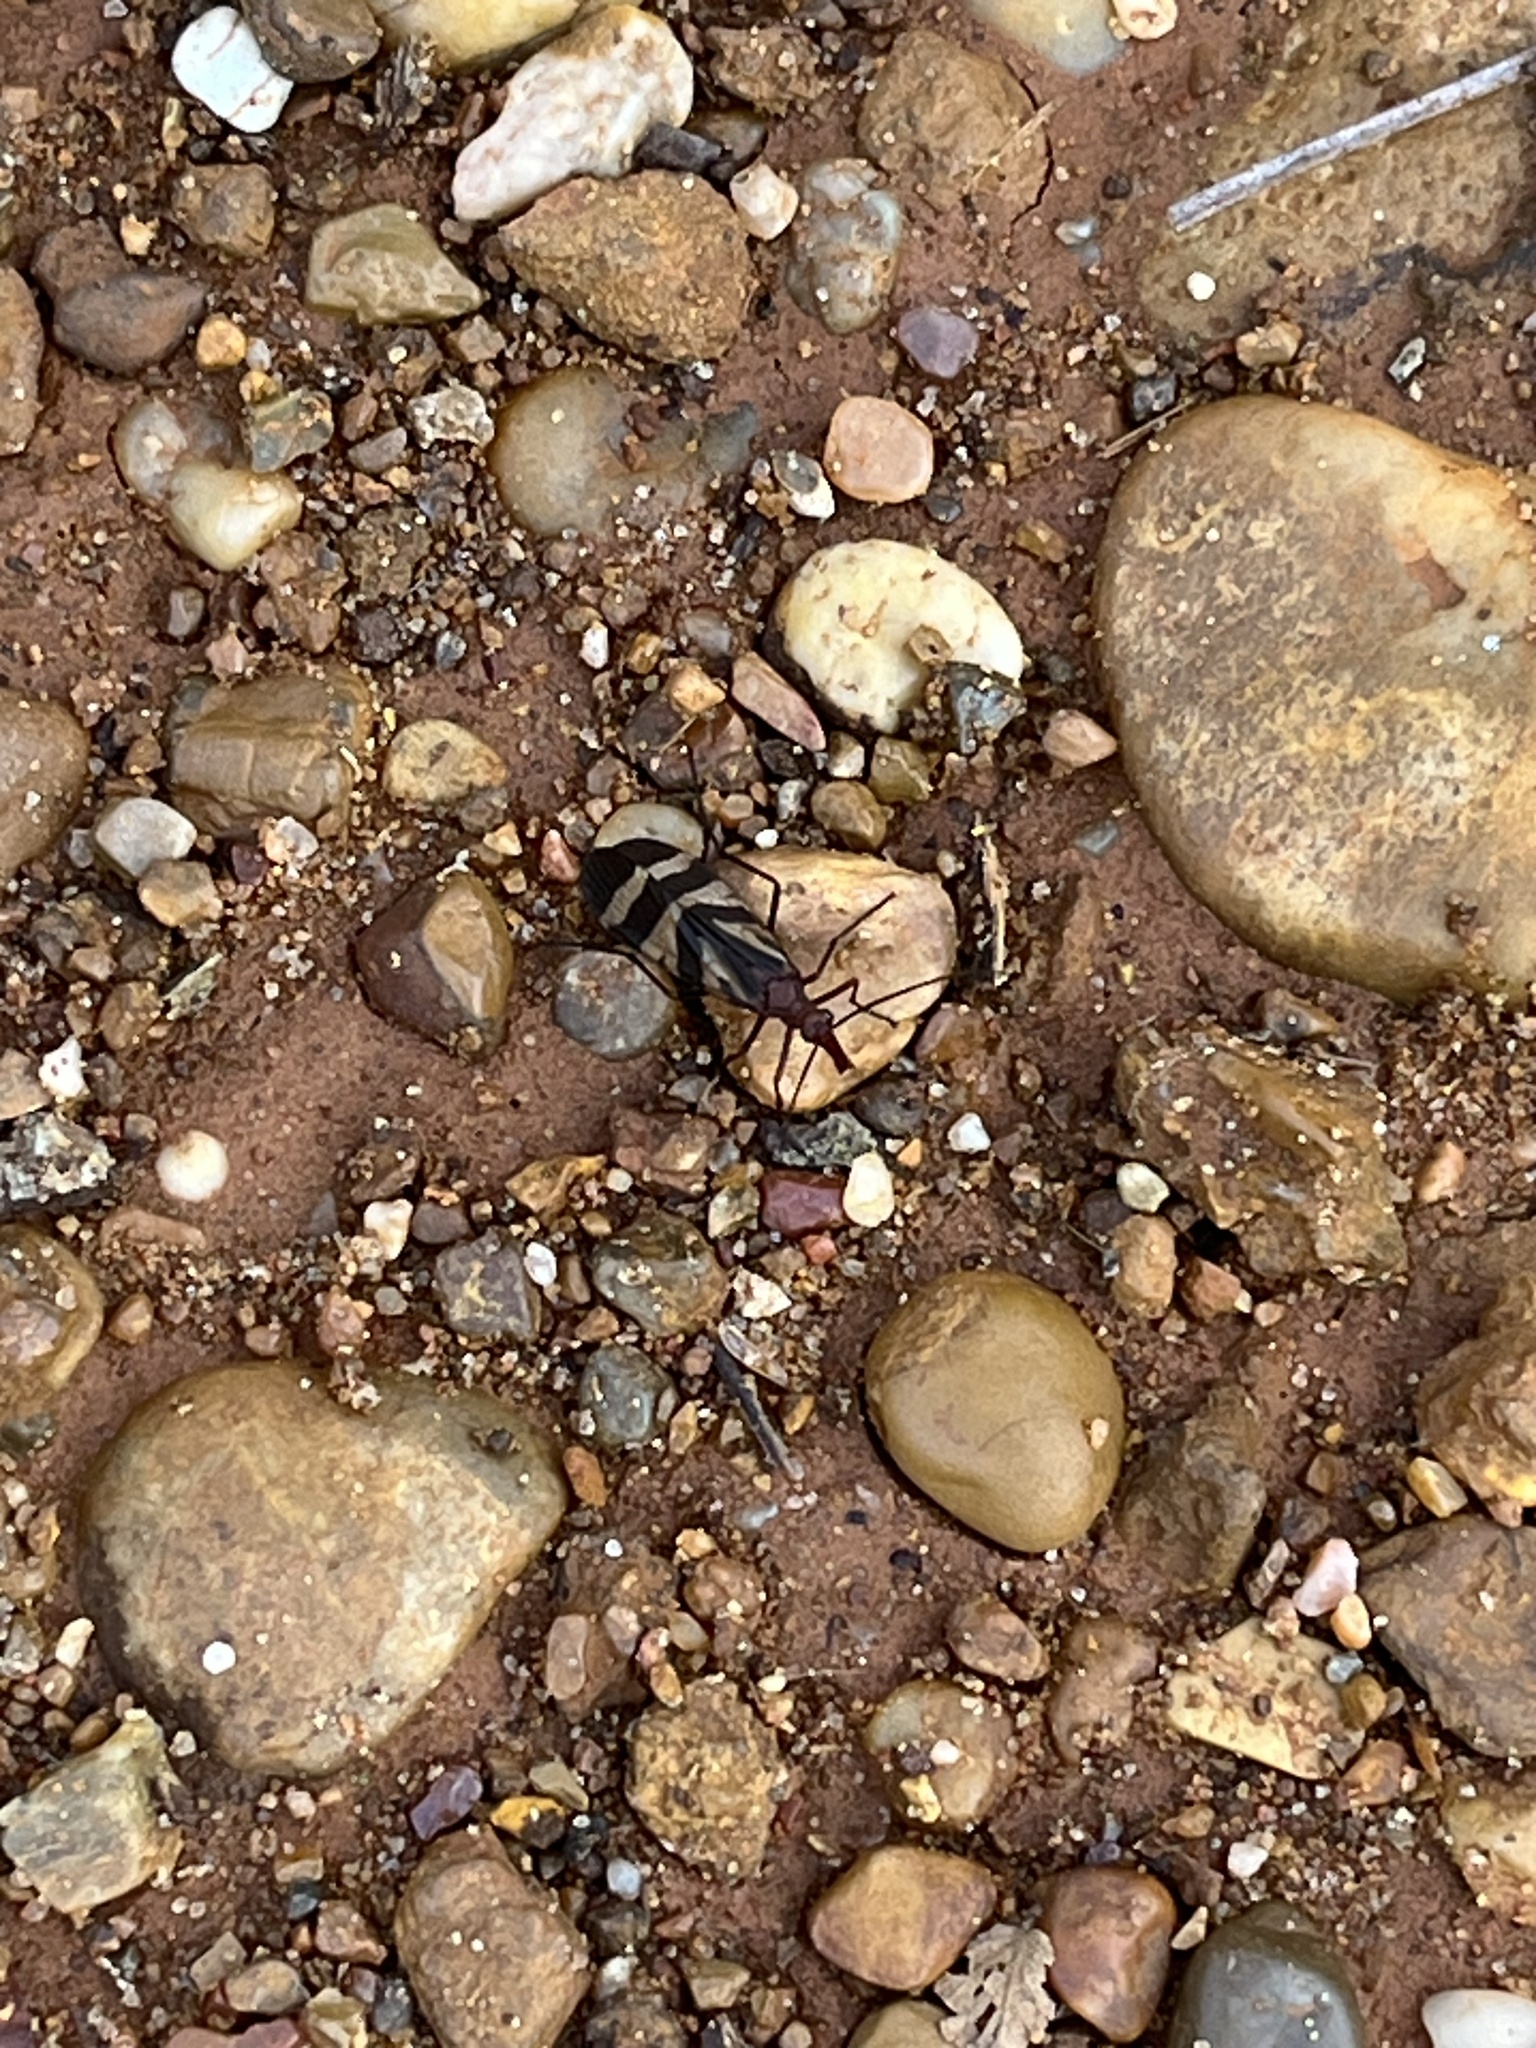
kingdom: Animalia
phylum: Arthropoda
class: Insecta
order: Mecoptera
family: Panorpidae
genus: Panorpa
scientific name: Panorpa nuptialis
